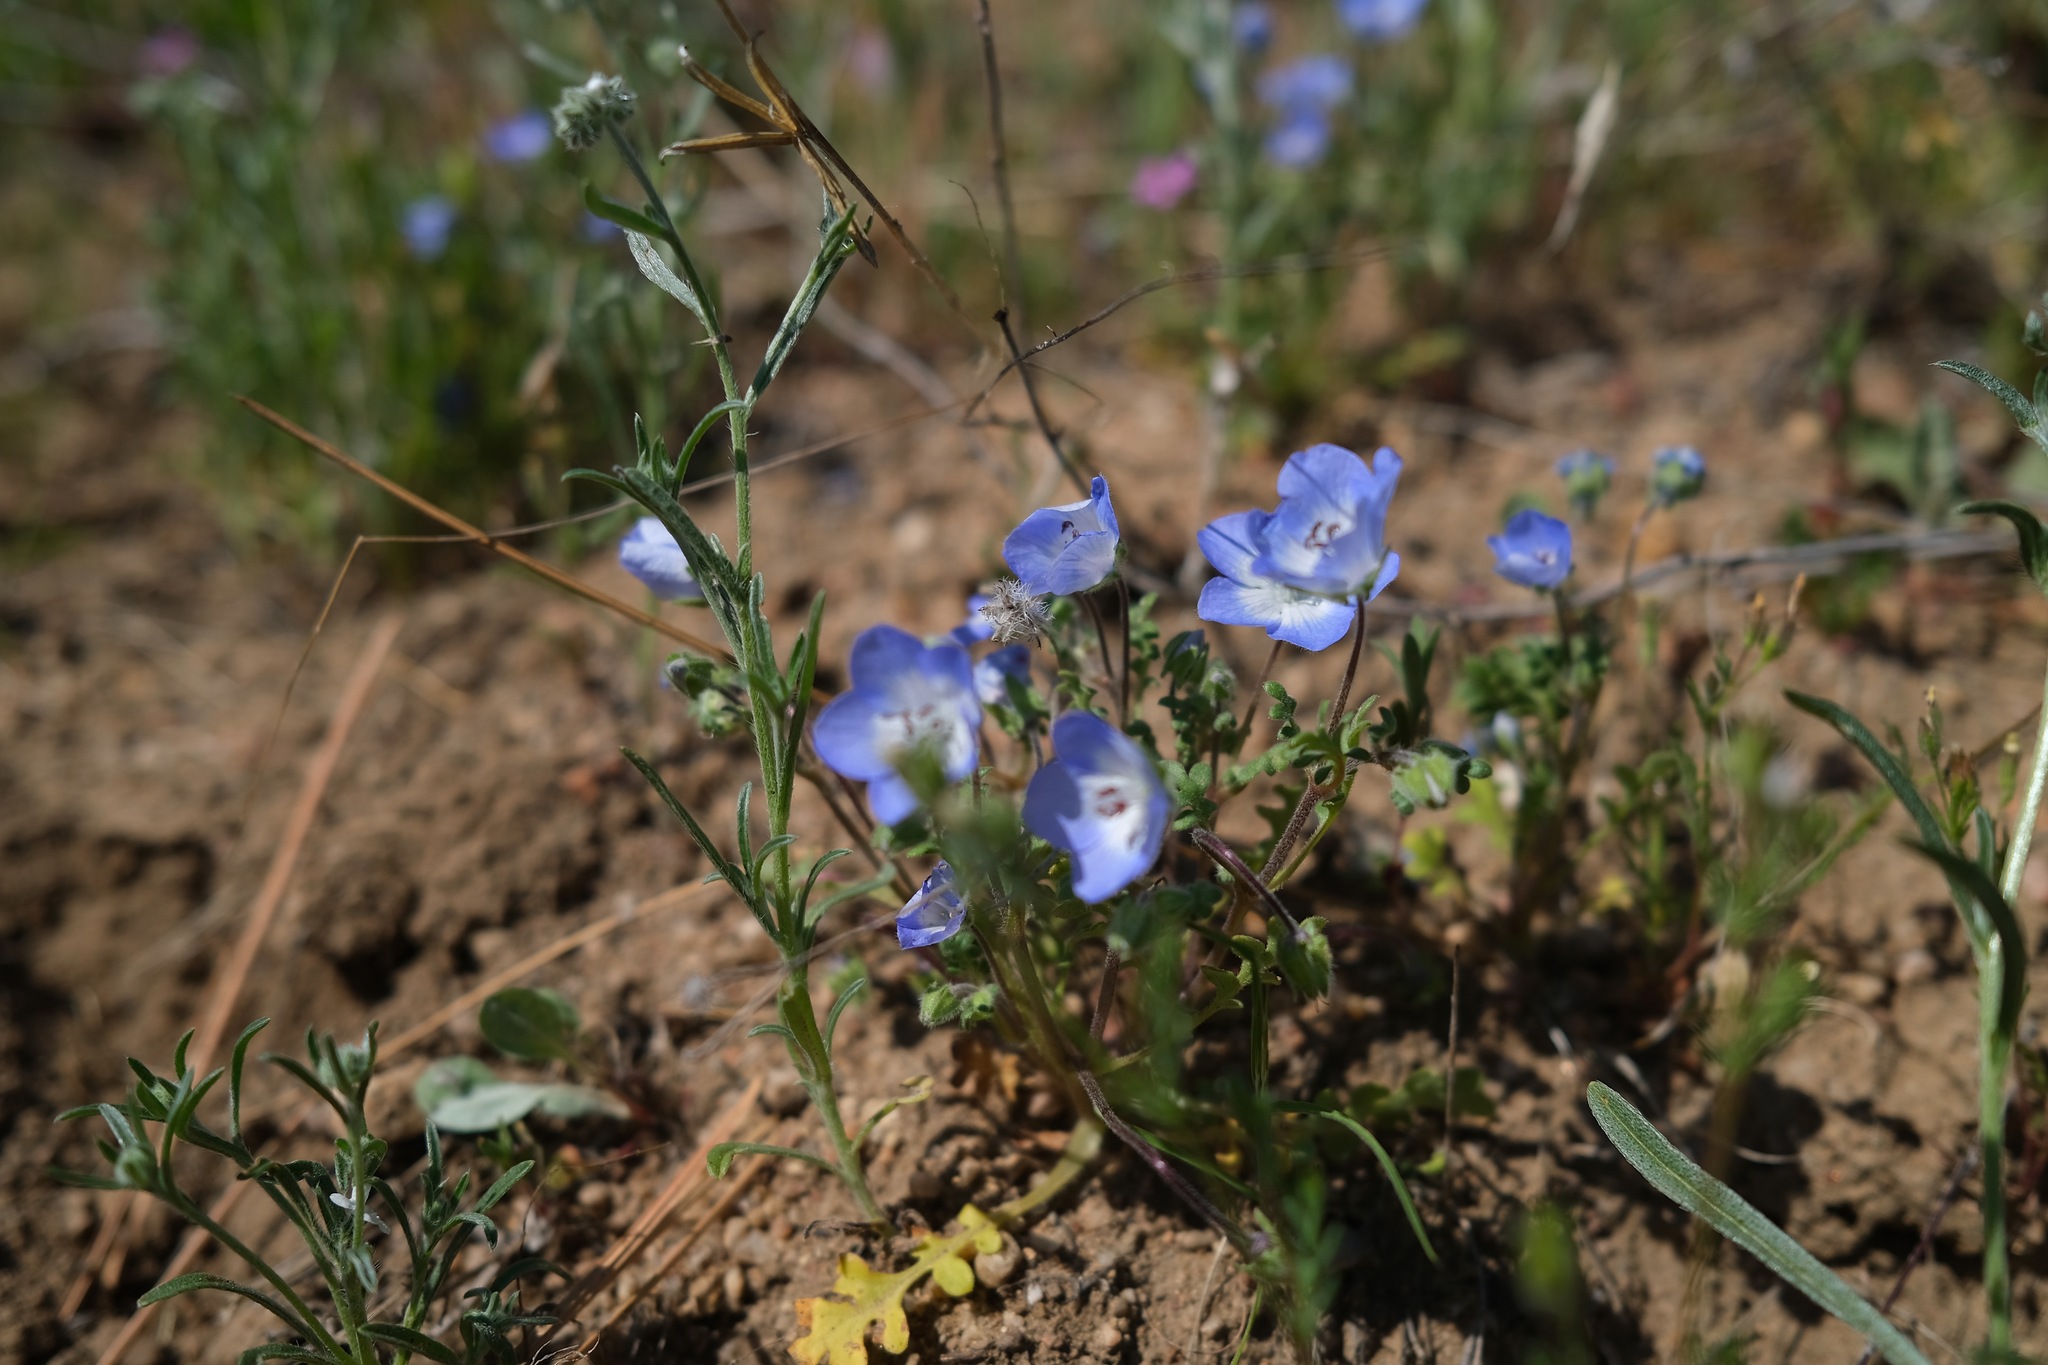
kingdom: Plantae
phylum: Tracheophyta
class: Magnoliopsida
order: Boraginales
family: Hydrophyllaceae
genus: Nemophila
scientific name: Nemophila menziesii
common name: Baby's-blue-eyes
